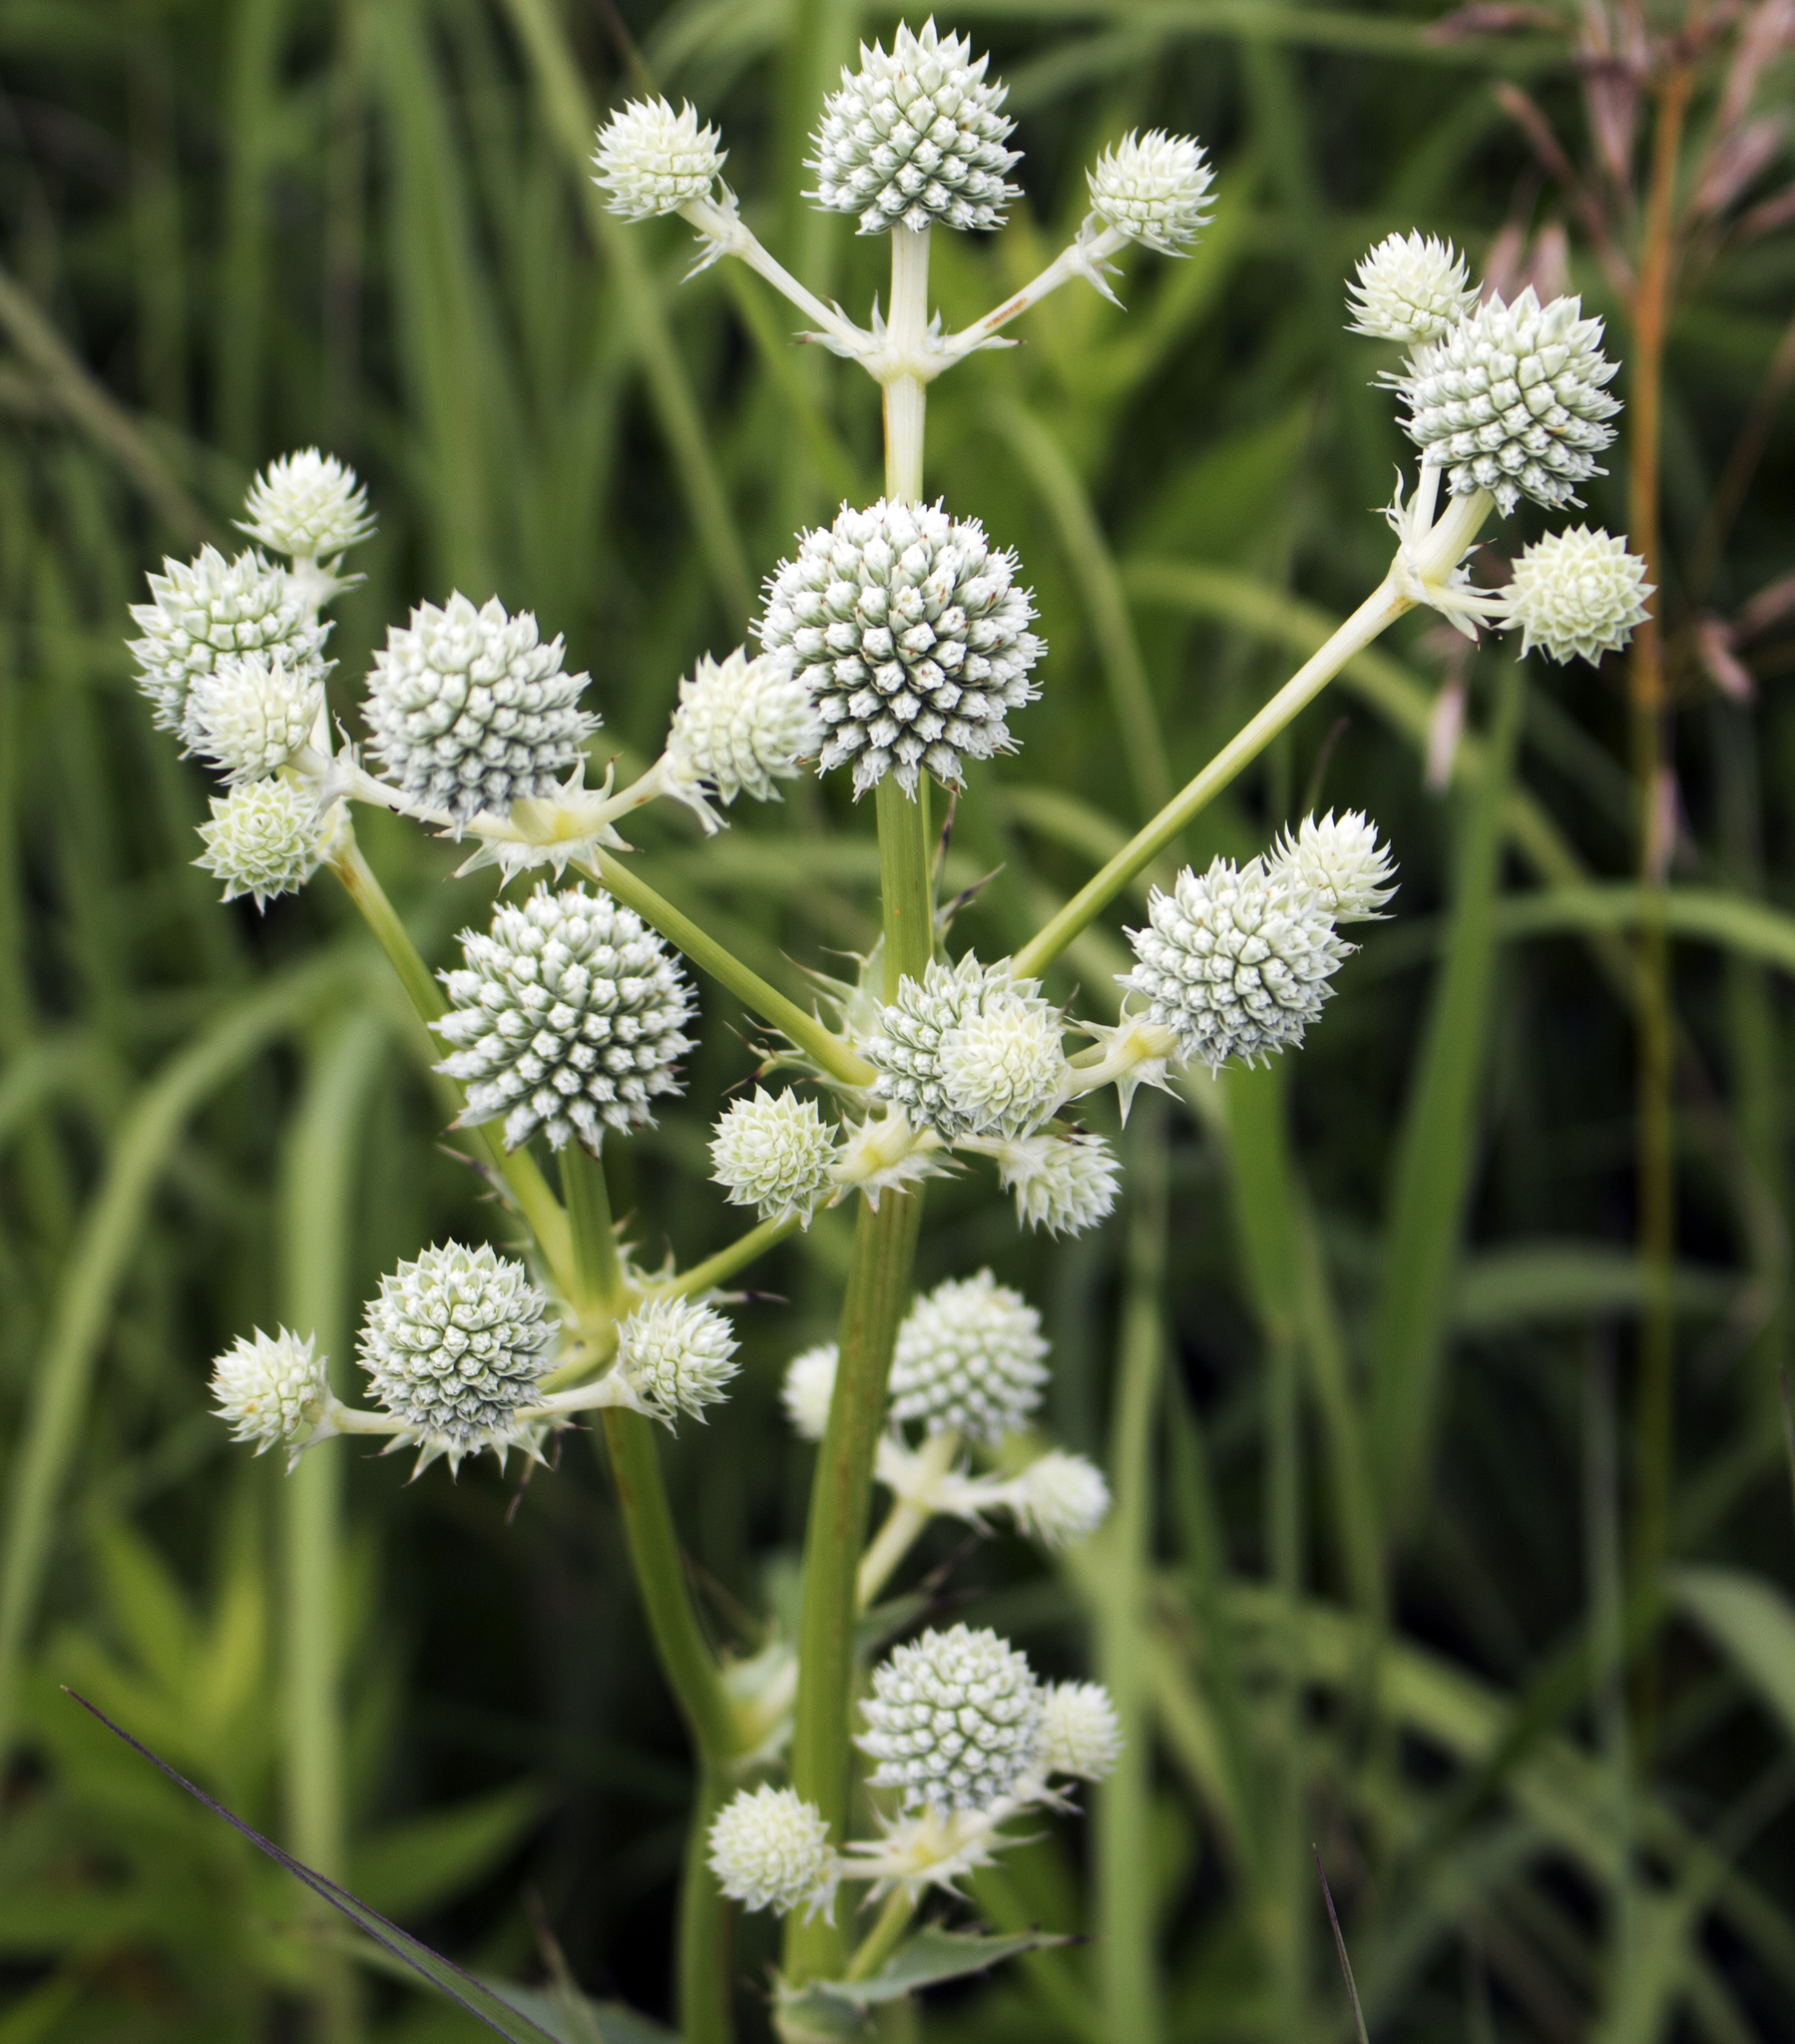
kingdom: Plantae
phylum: Tracheophyta
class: Magnoliopsida
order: Apiales
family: Apiaceae
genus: Eryngium
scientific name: Eryngium yuccifolium
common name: Button eryngo
